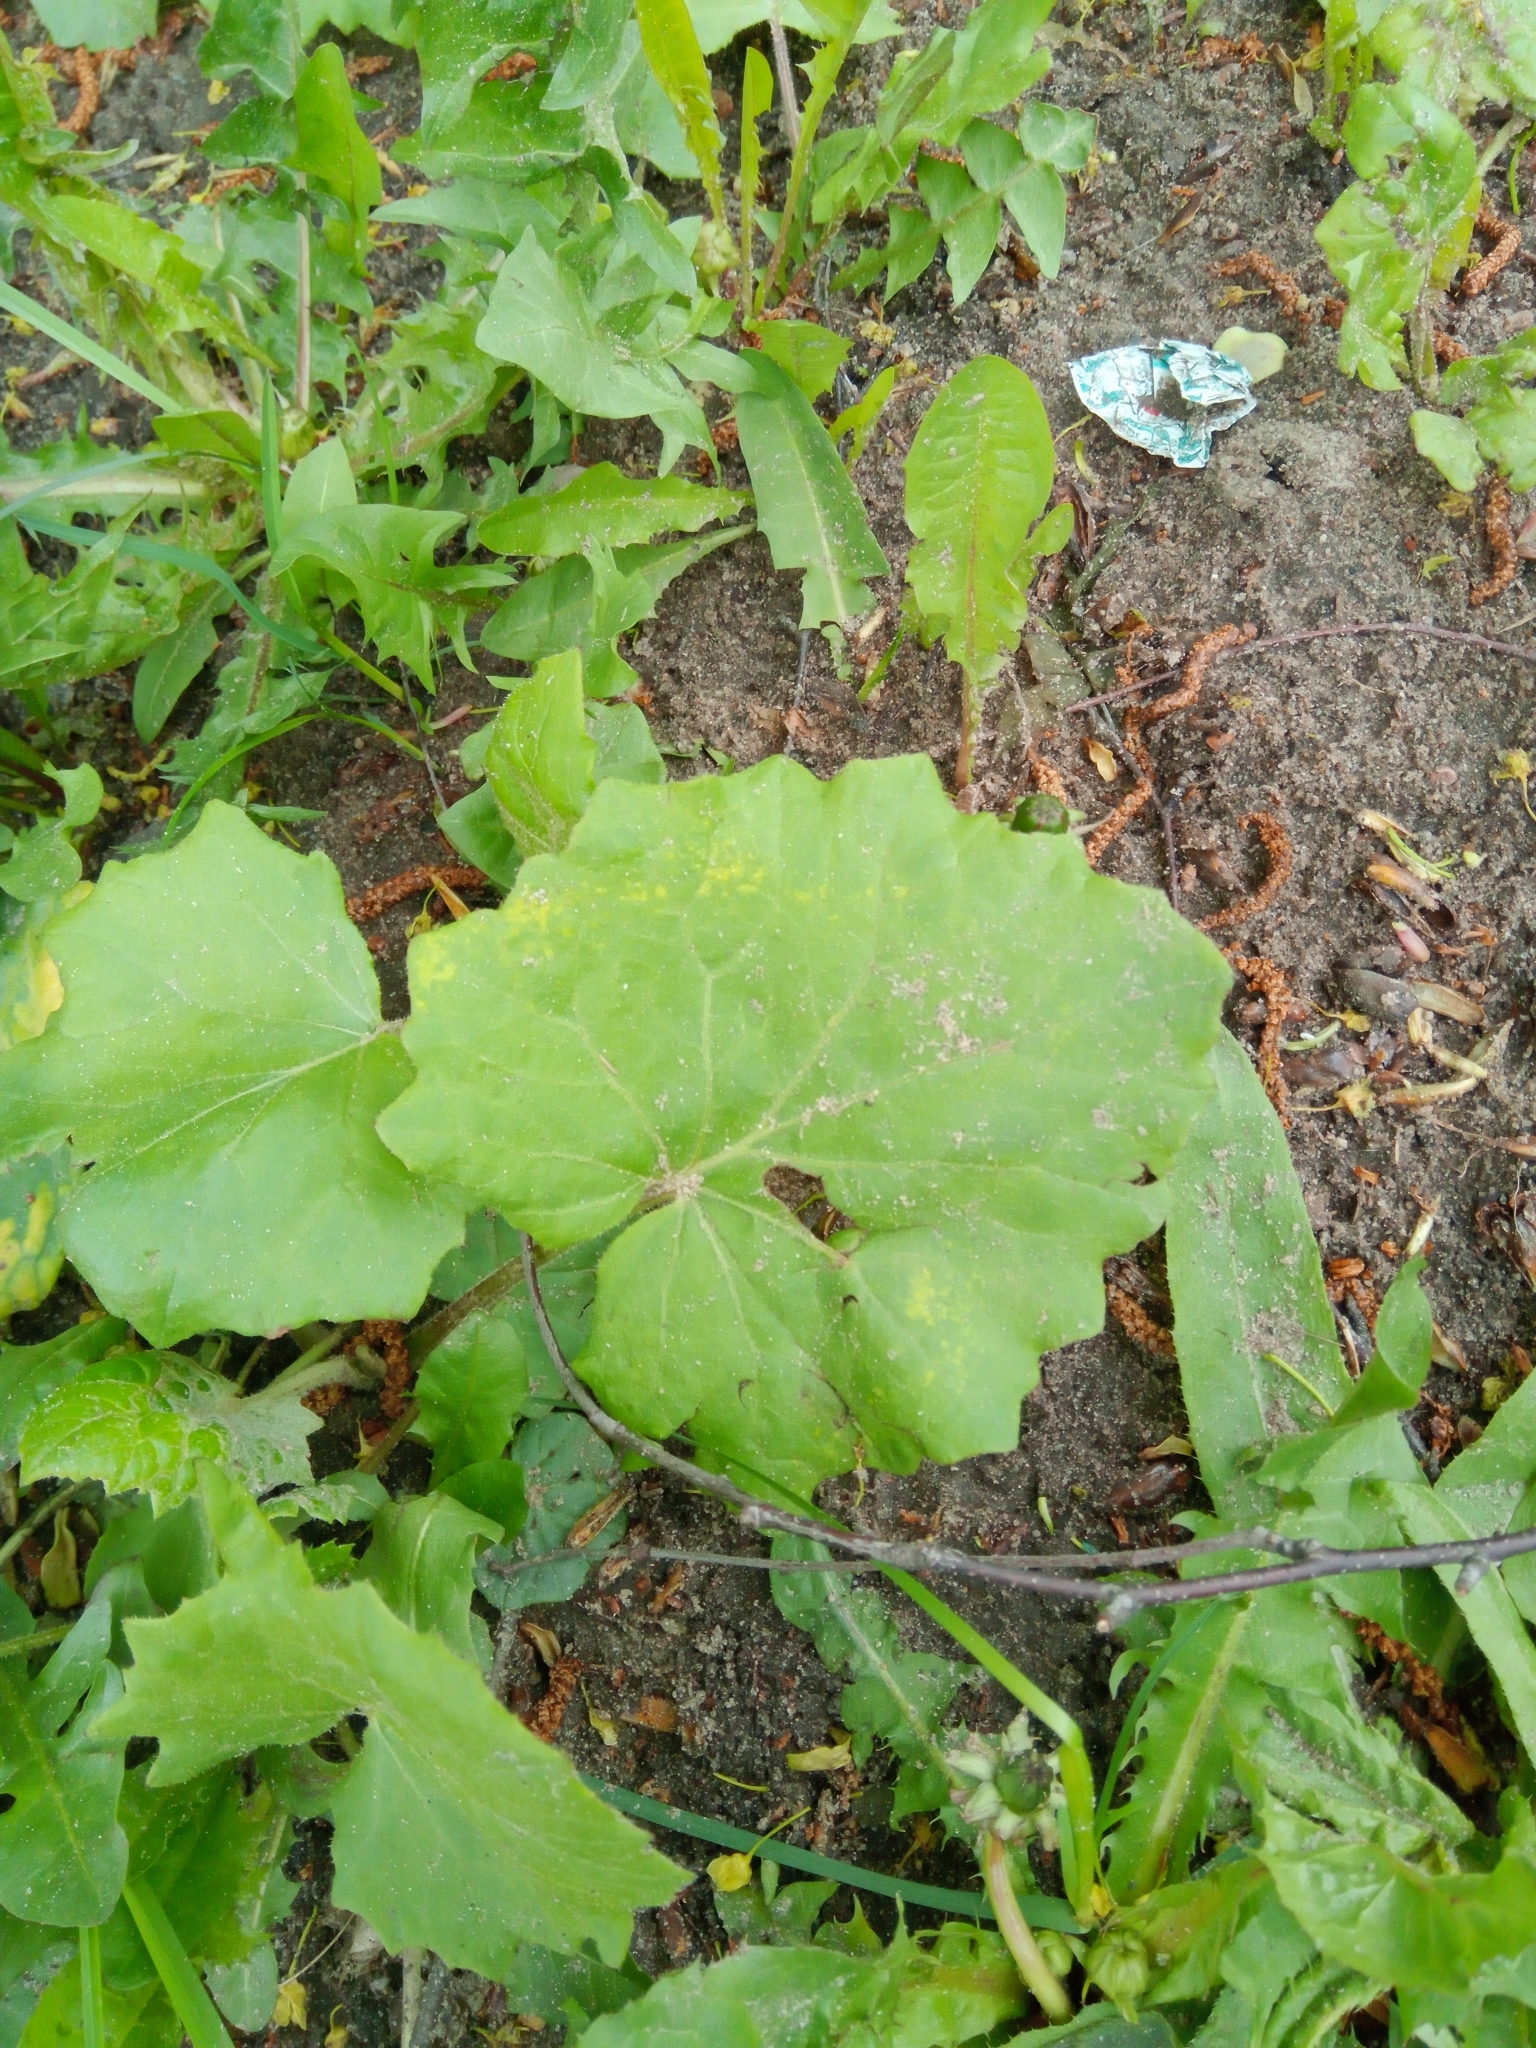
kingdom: Plantae
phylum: Tracheophyta
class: Magnoliopsida
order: Asterales
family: Asteraceae
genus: Tussilago
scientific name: Tussilago farfara
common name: Coltsfoot
